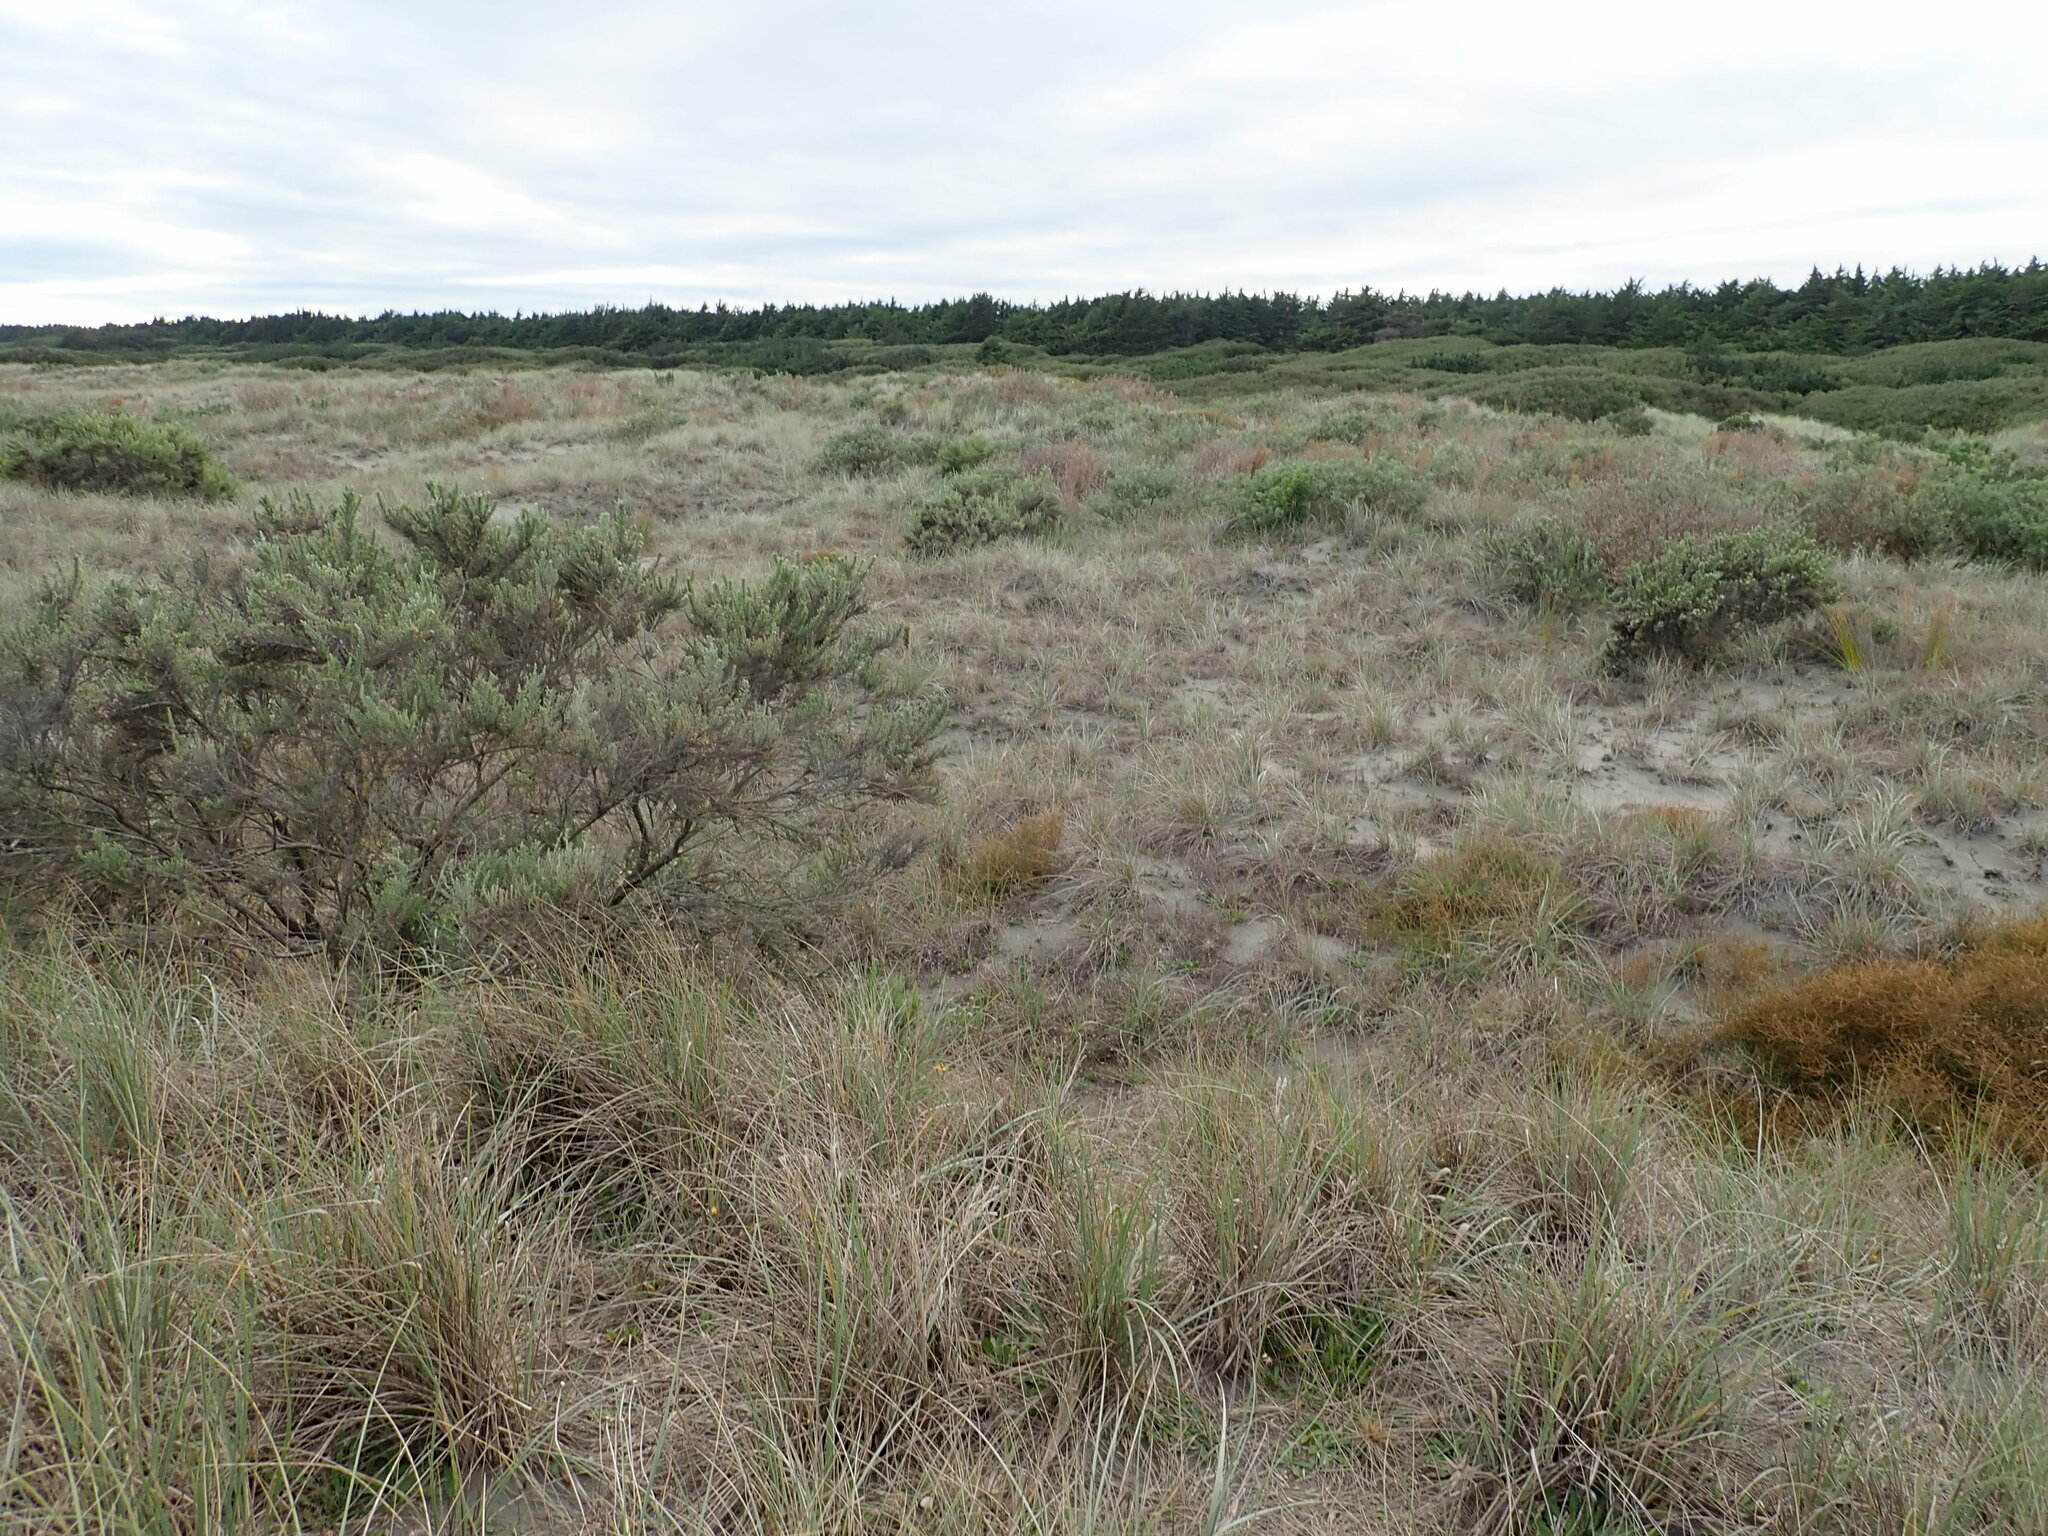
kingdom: Plantae
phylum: Tracheophyta
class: Magnoliopsida
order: Asterales
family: Asteraceae
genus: Ozothamnus
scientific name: Ozothamnus leptophyllus
